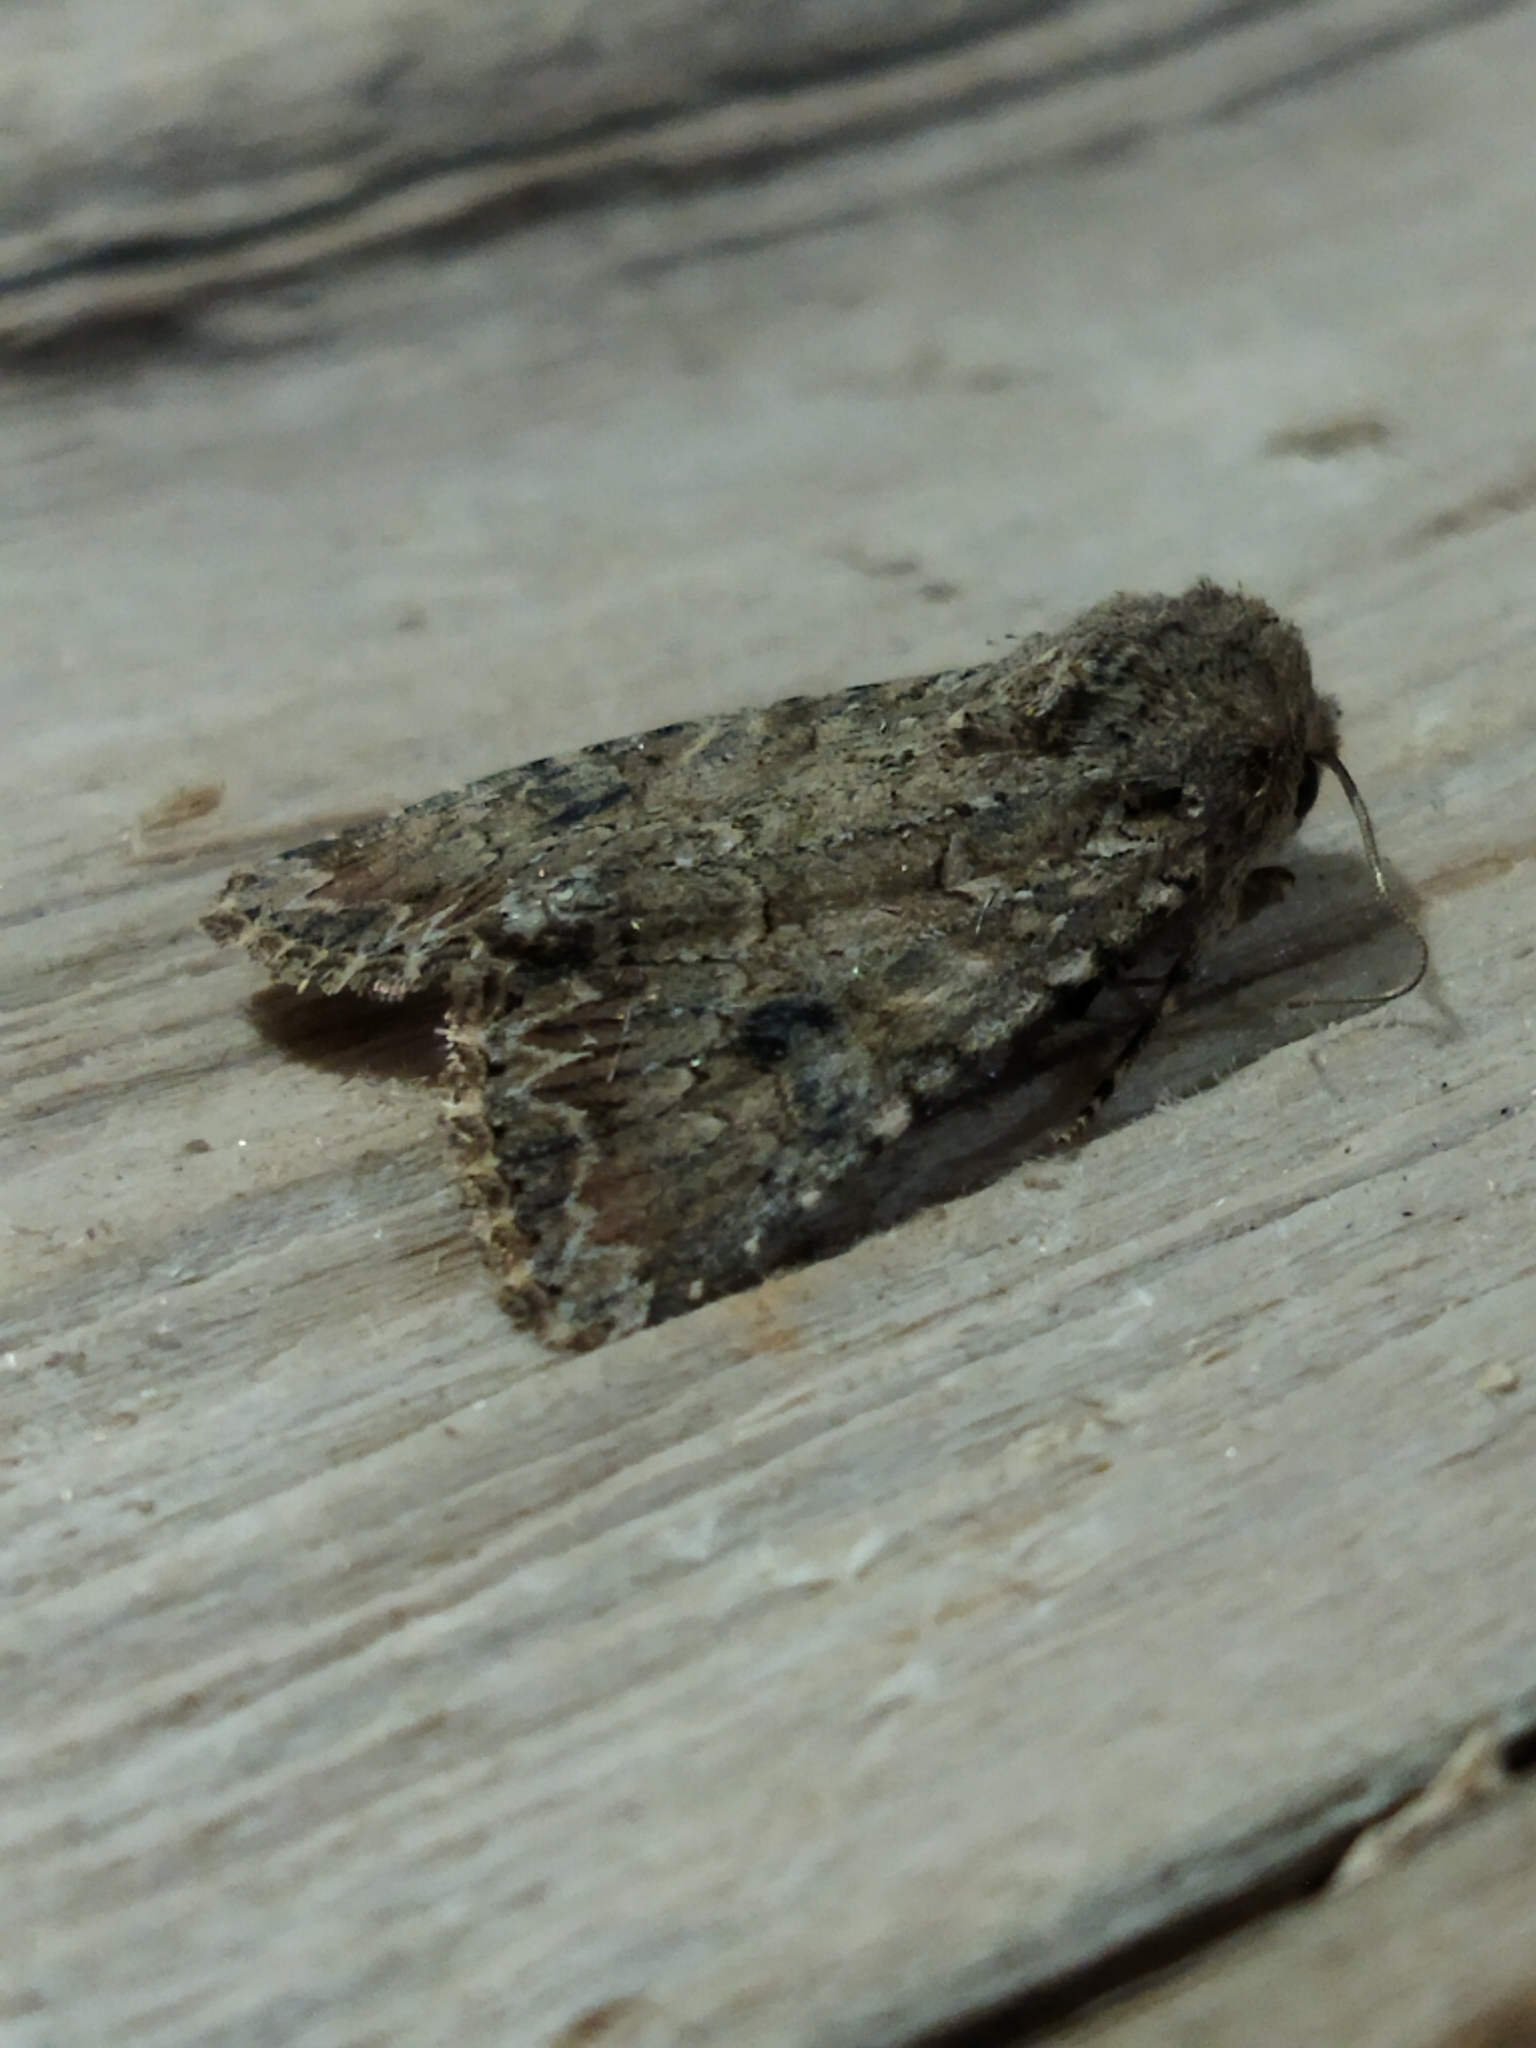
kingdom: Animalia
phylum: Arthropoda
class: Insecta
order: Lepidoptera
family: Noctuidae
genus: Anarta
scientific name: Anarta trifolii
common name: Clover cutworm moth
